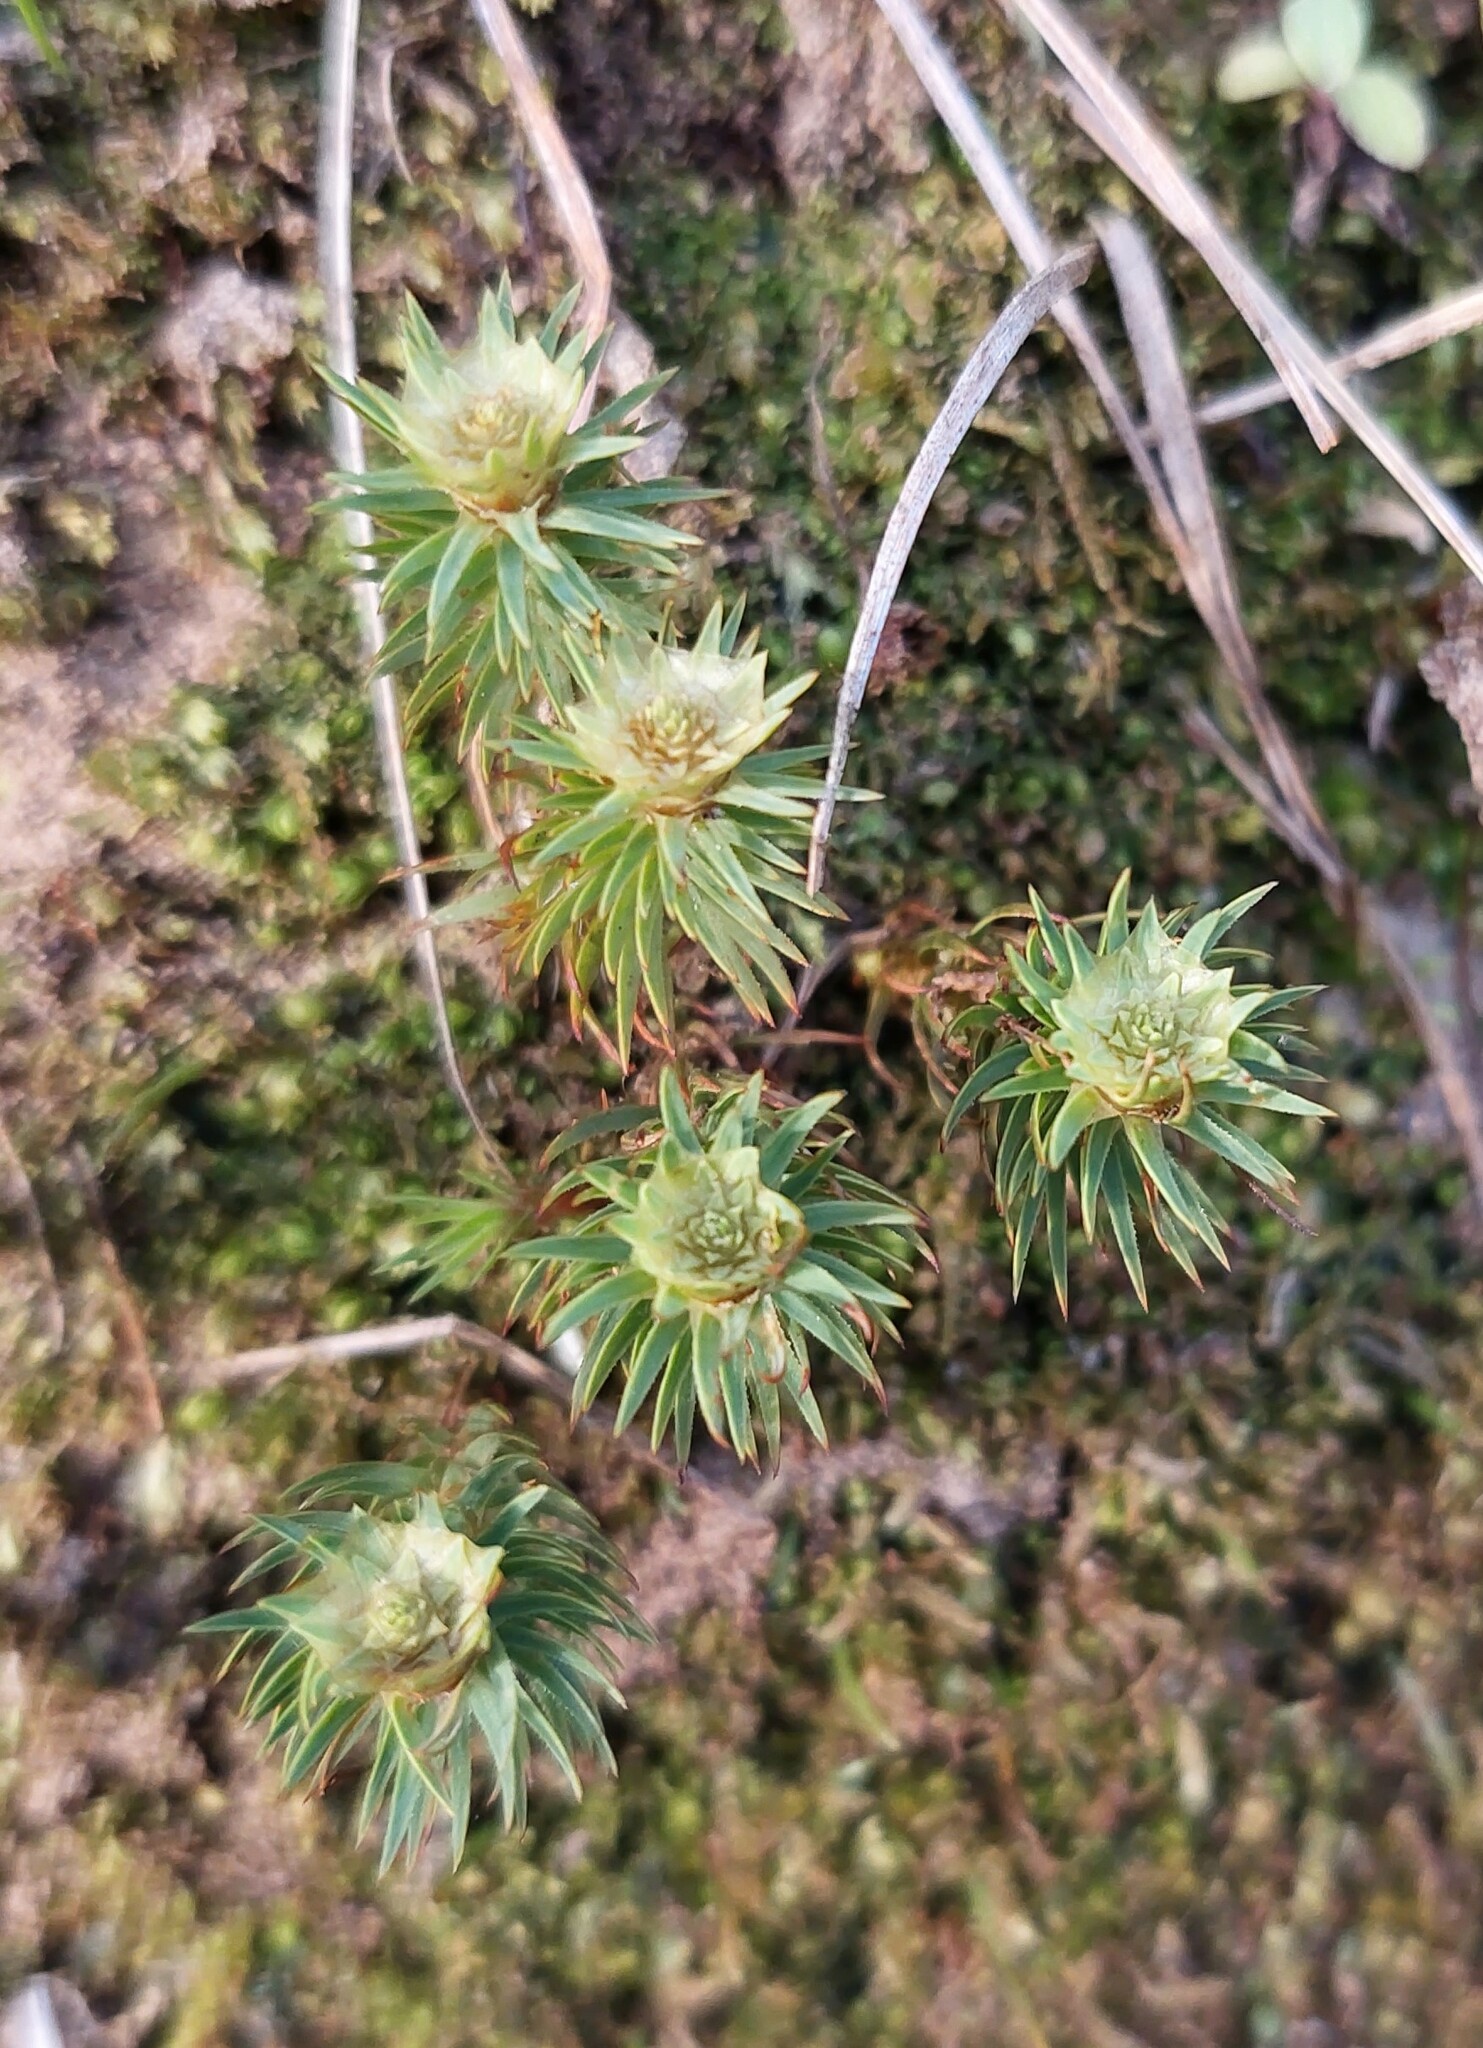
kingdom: Plantae
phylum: Bryophyta
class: Polytrichopsida
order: Polytrichales
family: Polytrichaceae
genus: Polytrichadelphus
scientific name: Polytrichadelphus magellanicus
